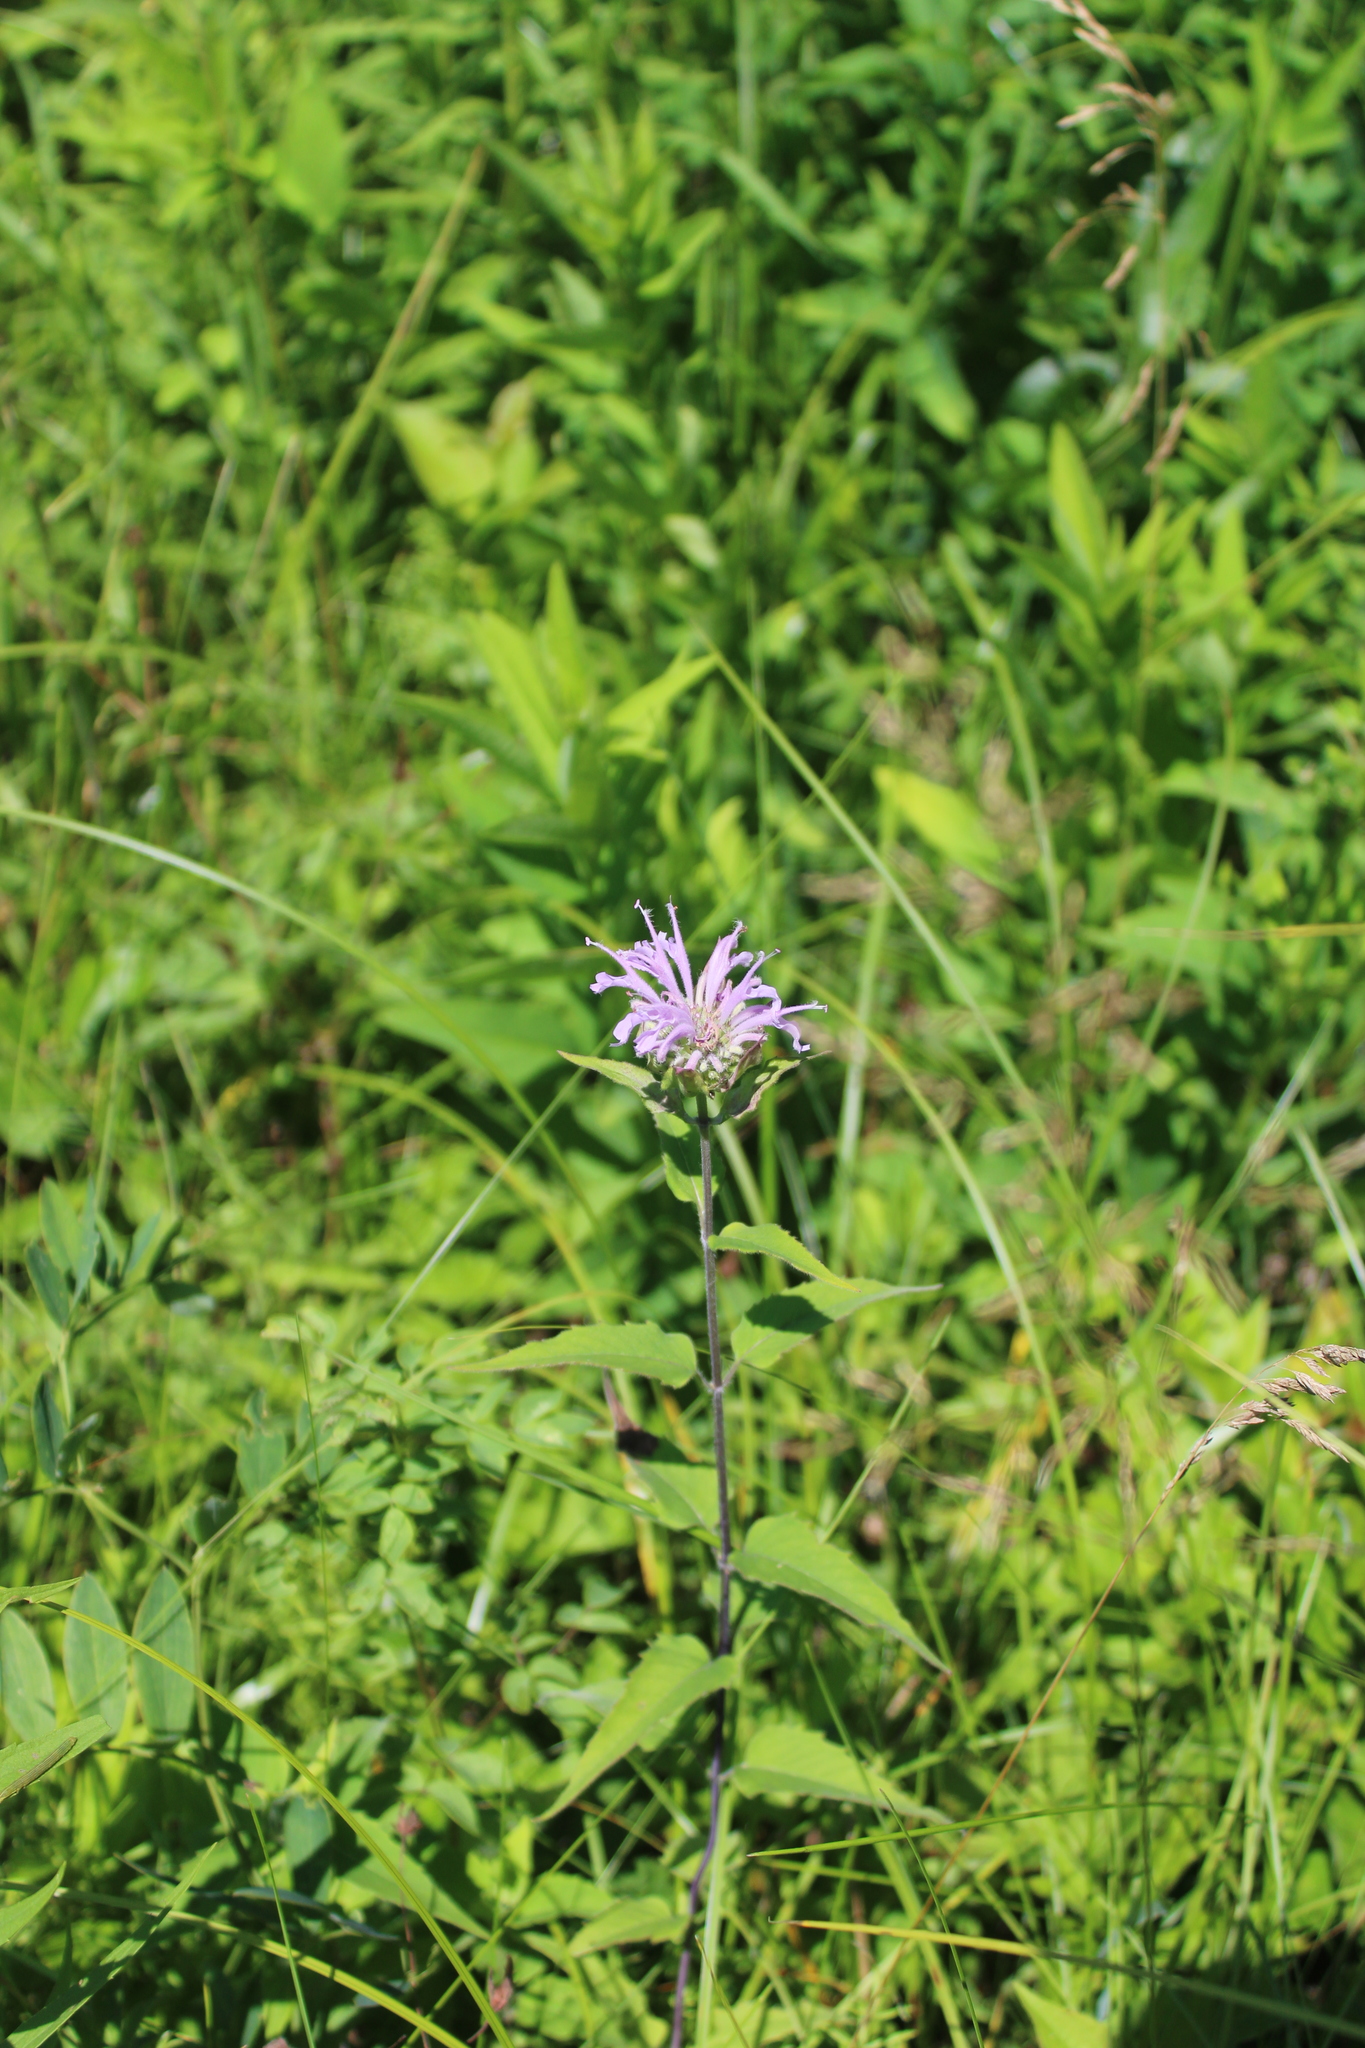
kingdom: Plantae
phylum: Tracheophyta
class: Magnoliopsida
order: Lamiales
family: Lamiaceae
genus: Monarda
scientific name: Monarda fistulosa
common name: Purple beebalm
